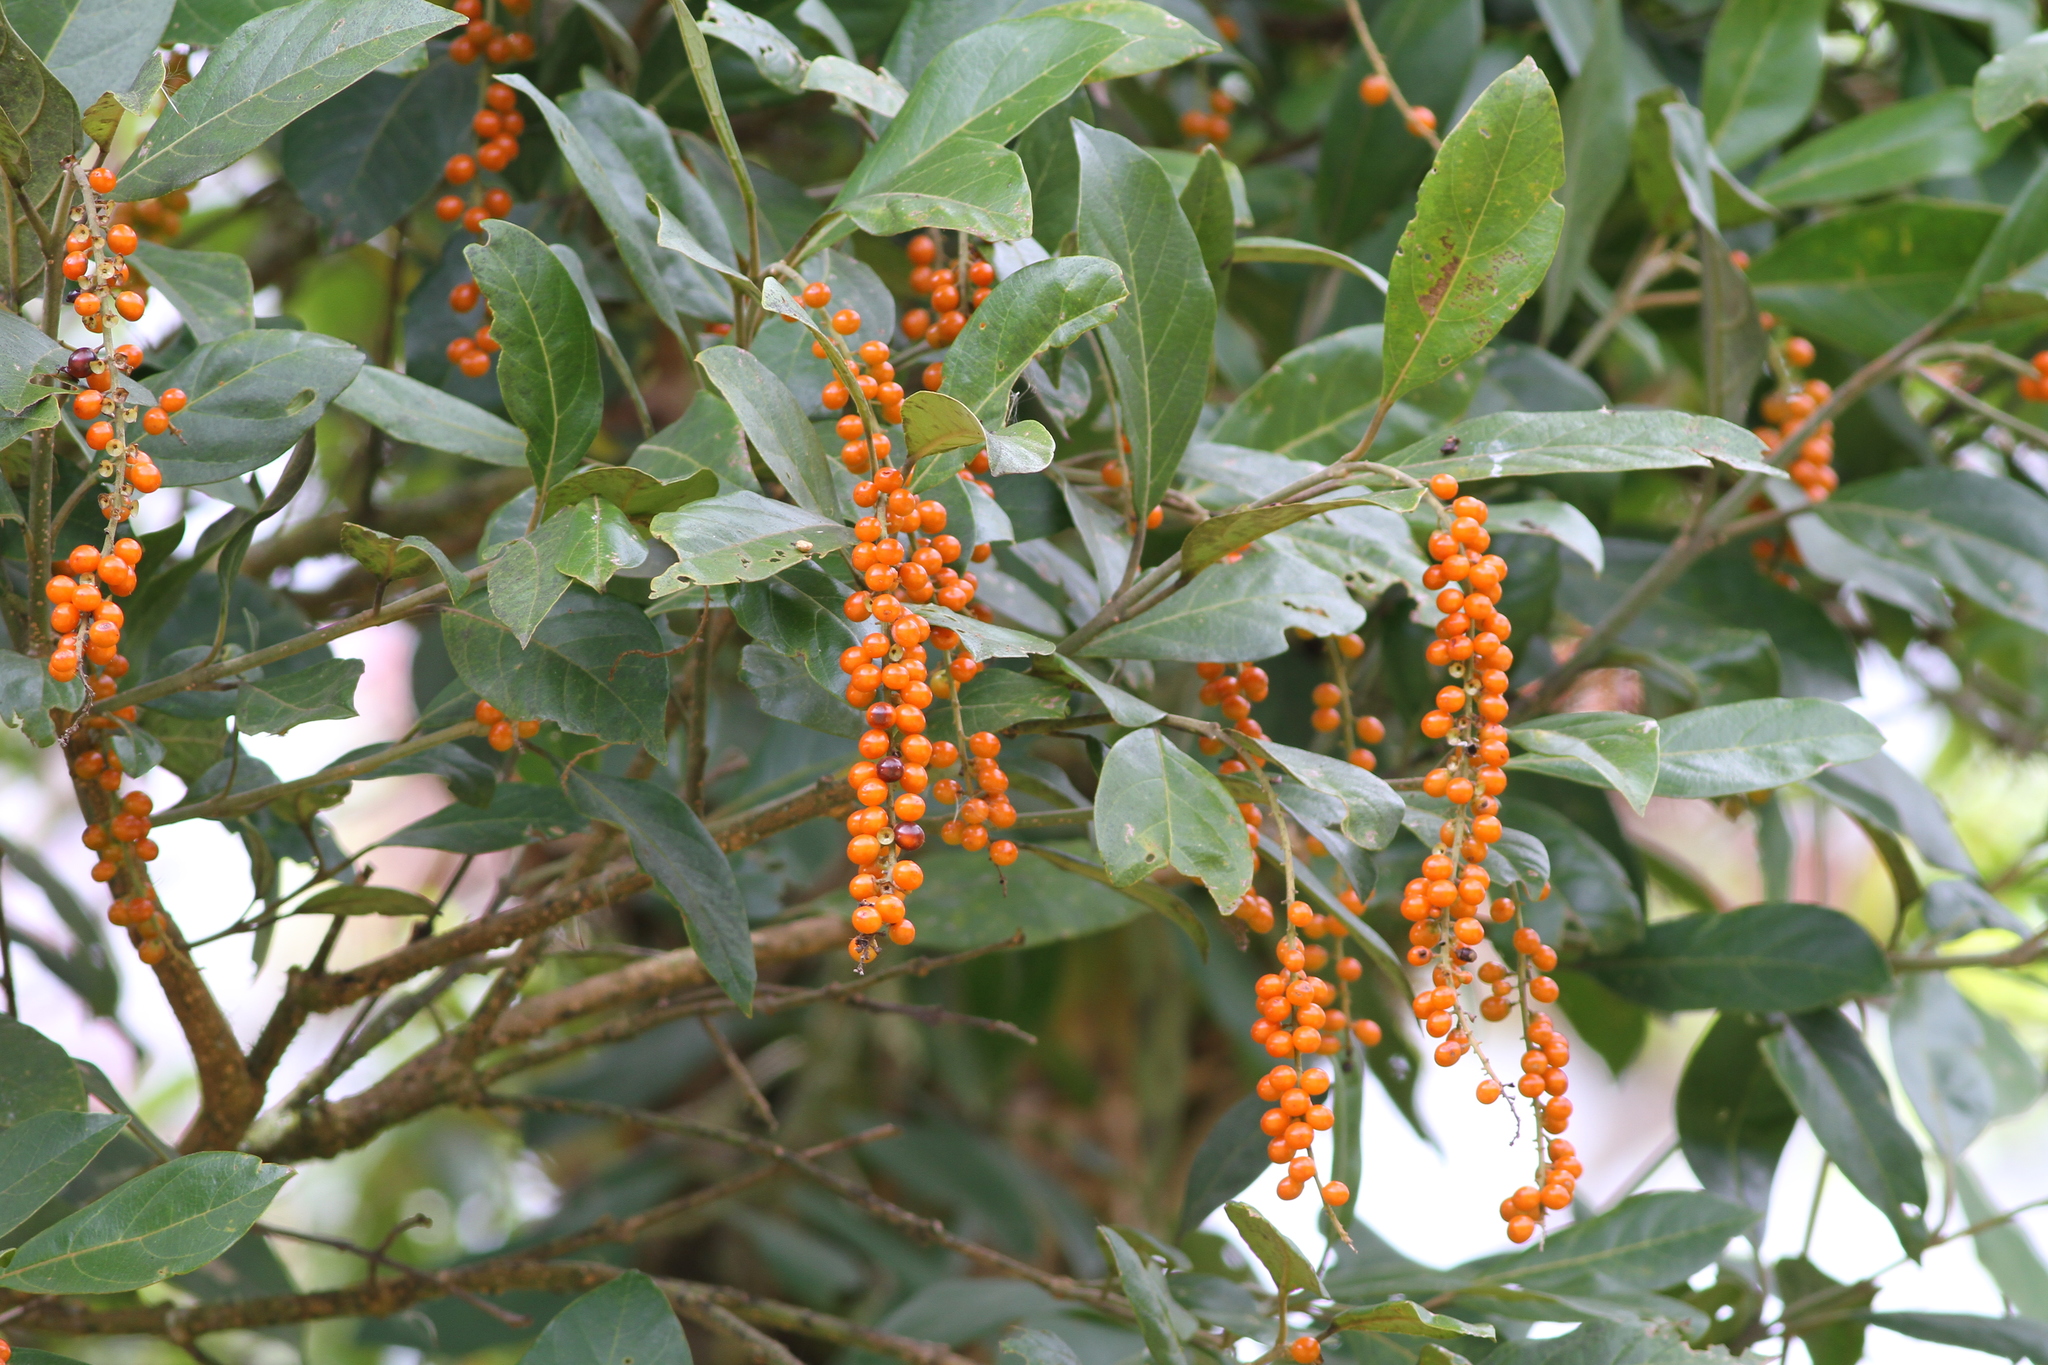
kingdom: Plantae
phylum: Tracheophyta
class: Magnoliopsida
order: Lamiales
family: Verbenaceae
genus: Citharexylum
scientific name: Citharexylum crassifolium
